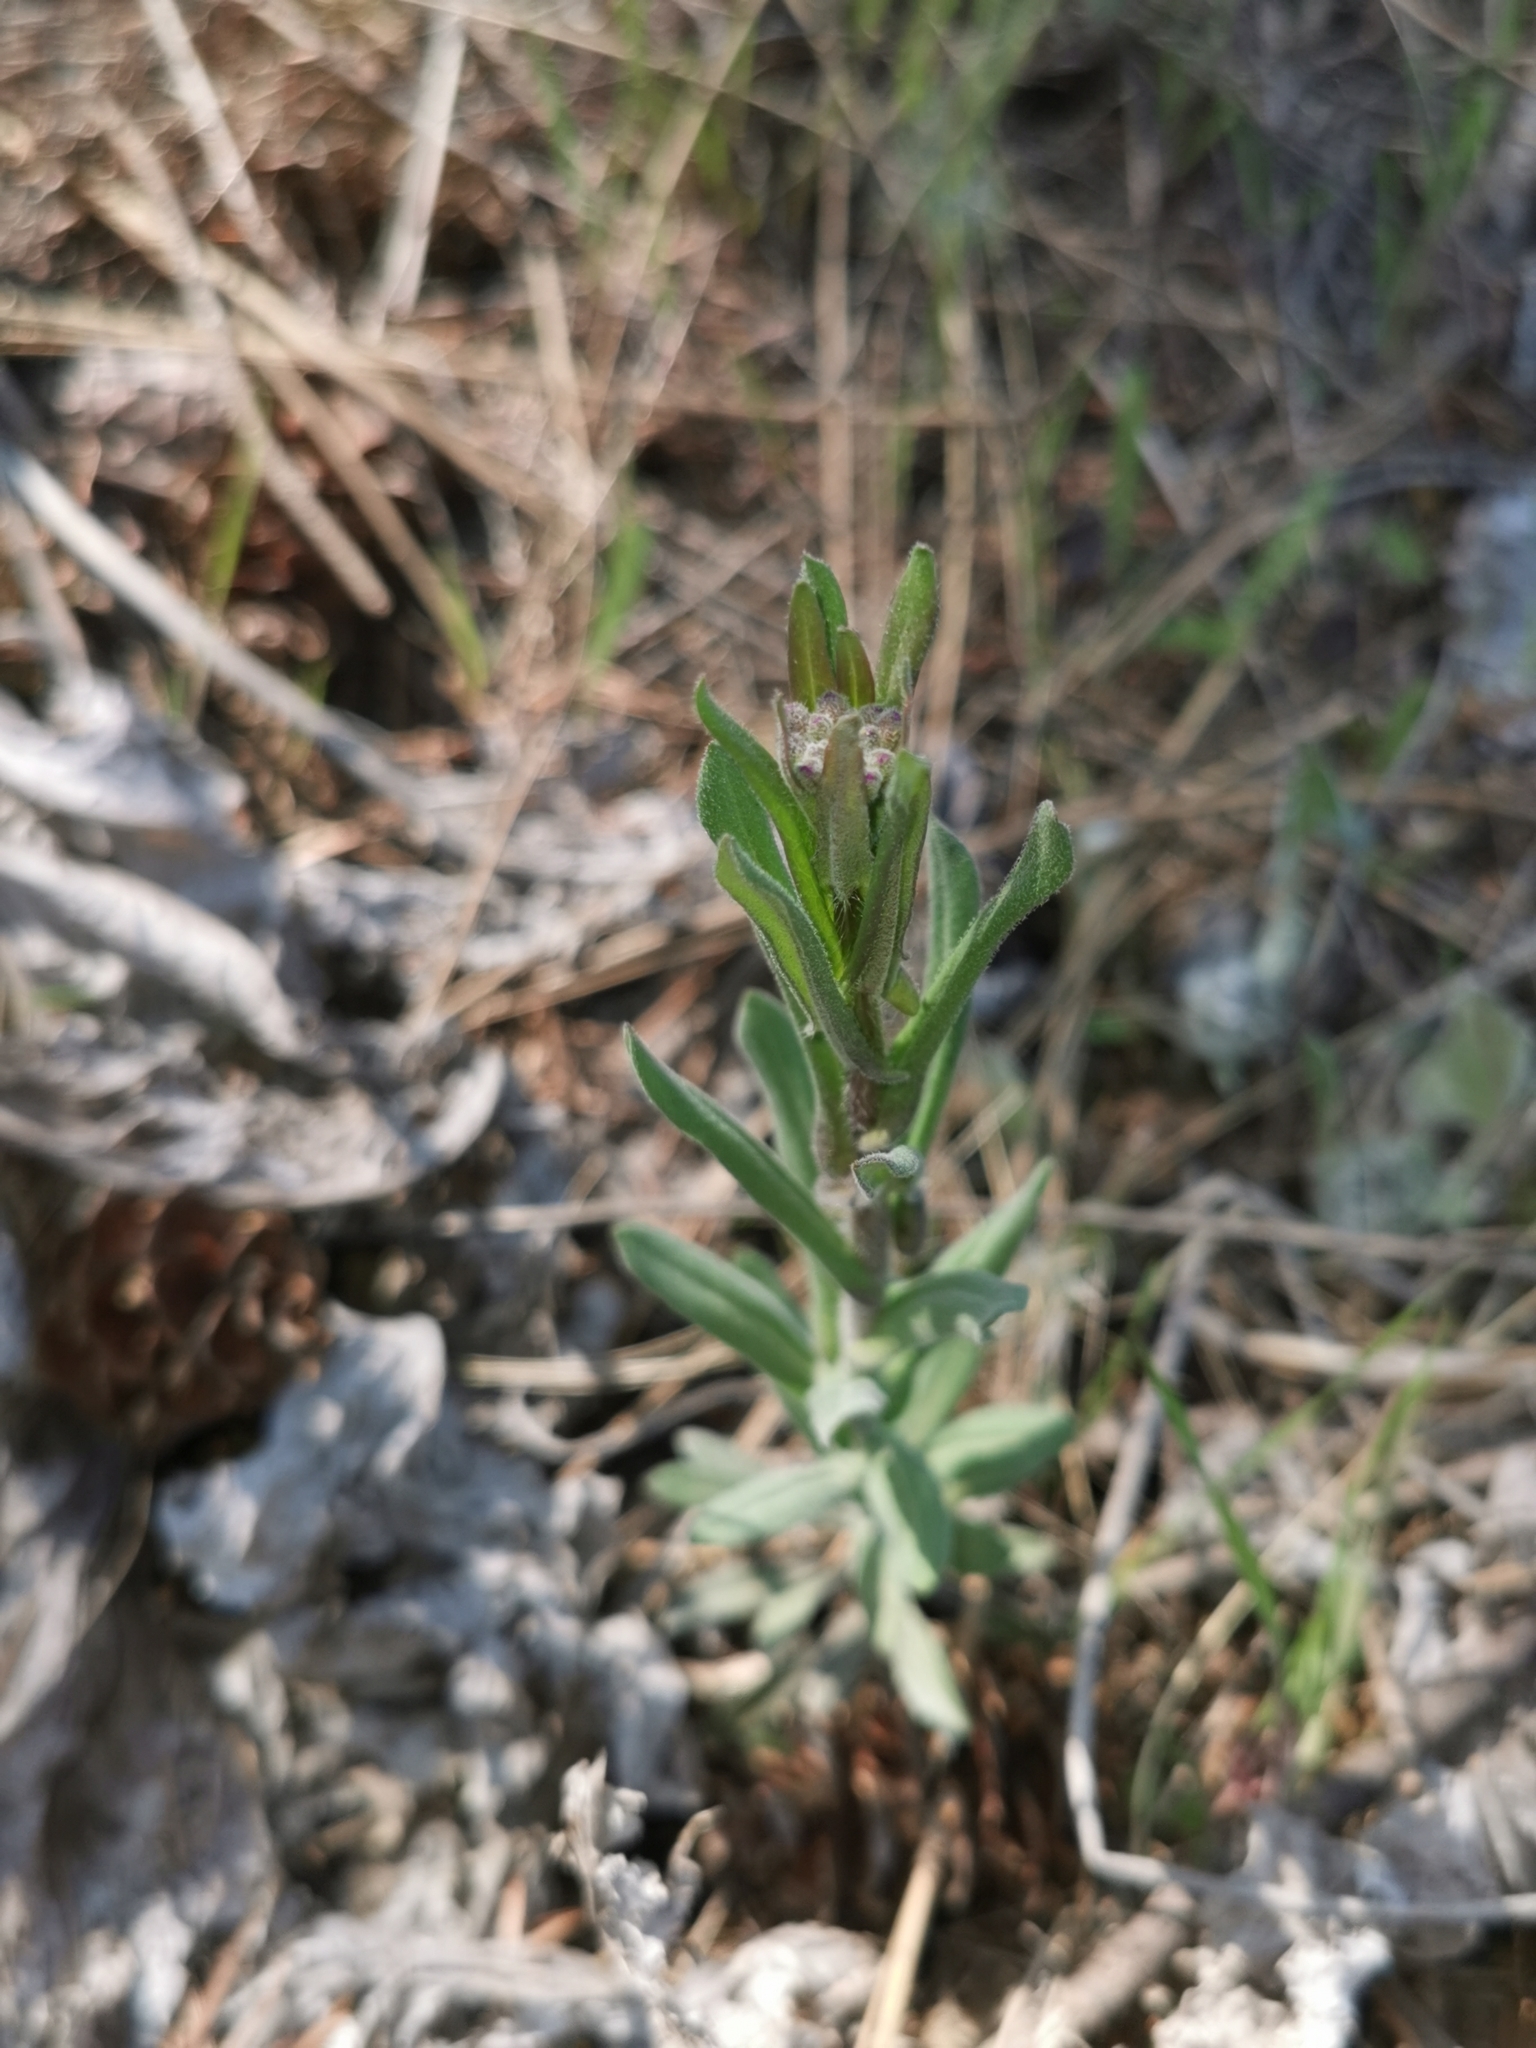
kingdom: Plantae
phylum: Tracheophyta
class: Magnoliopsida
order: Brassicales
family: Brassicaceae
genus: Berteroa
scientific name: Berteroa incana
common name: Hoary alison
